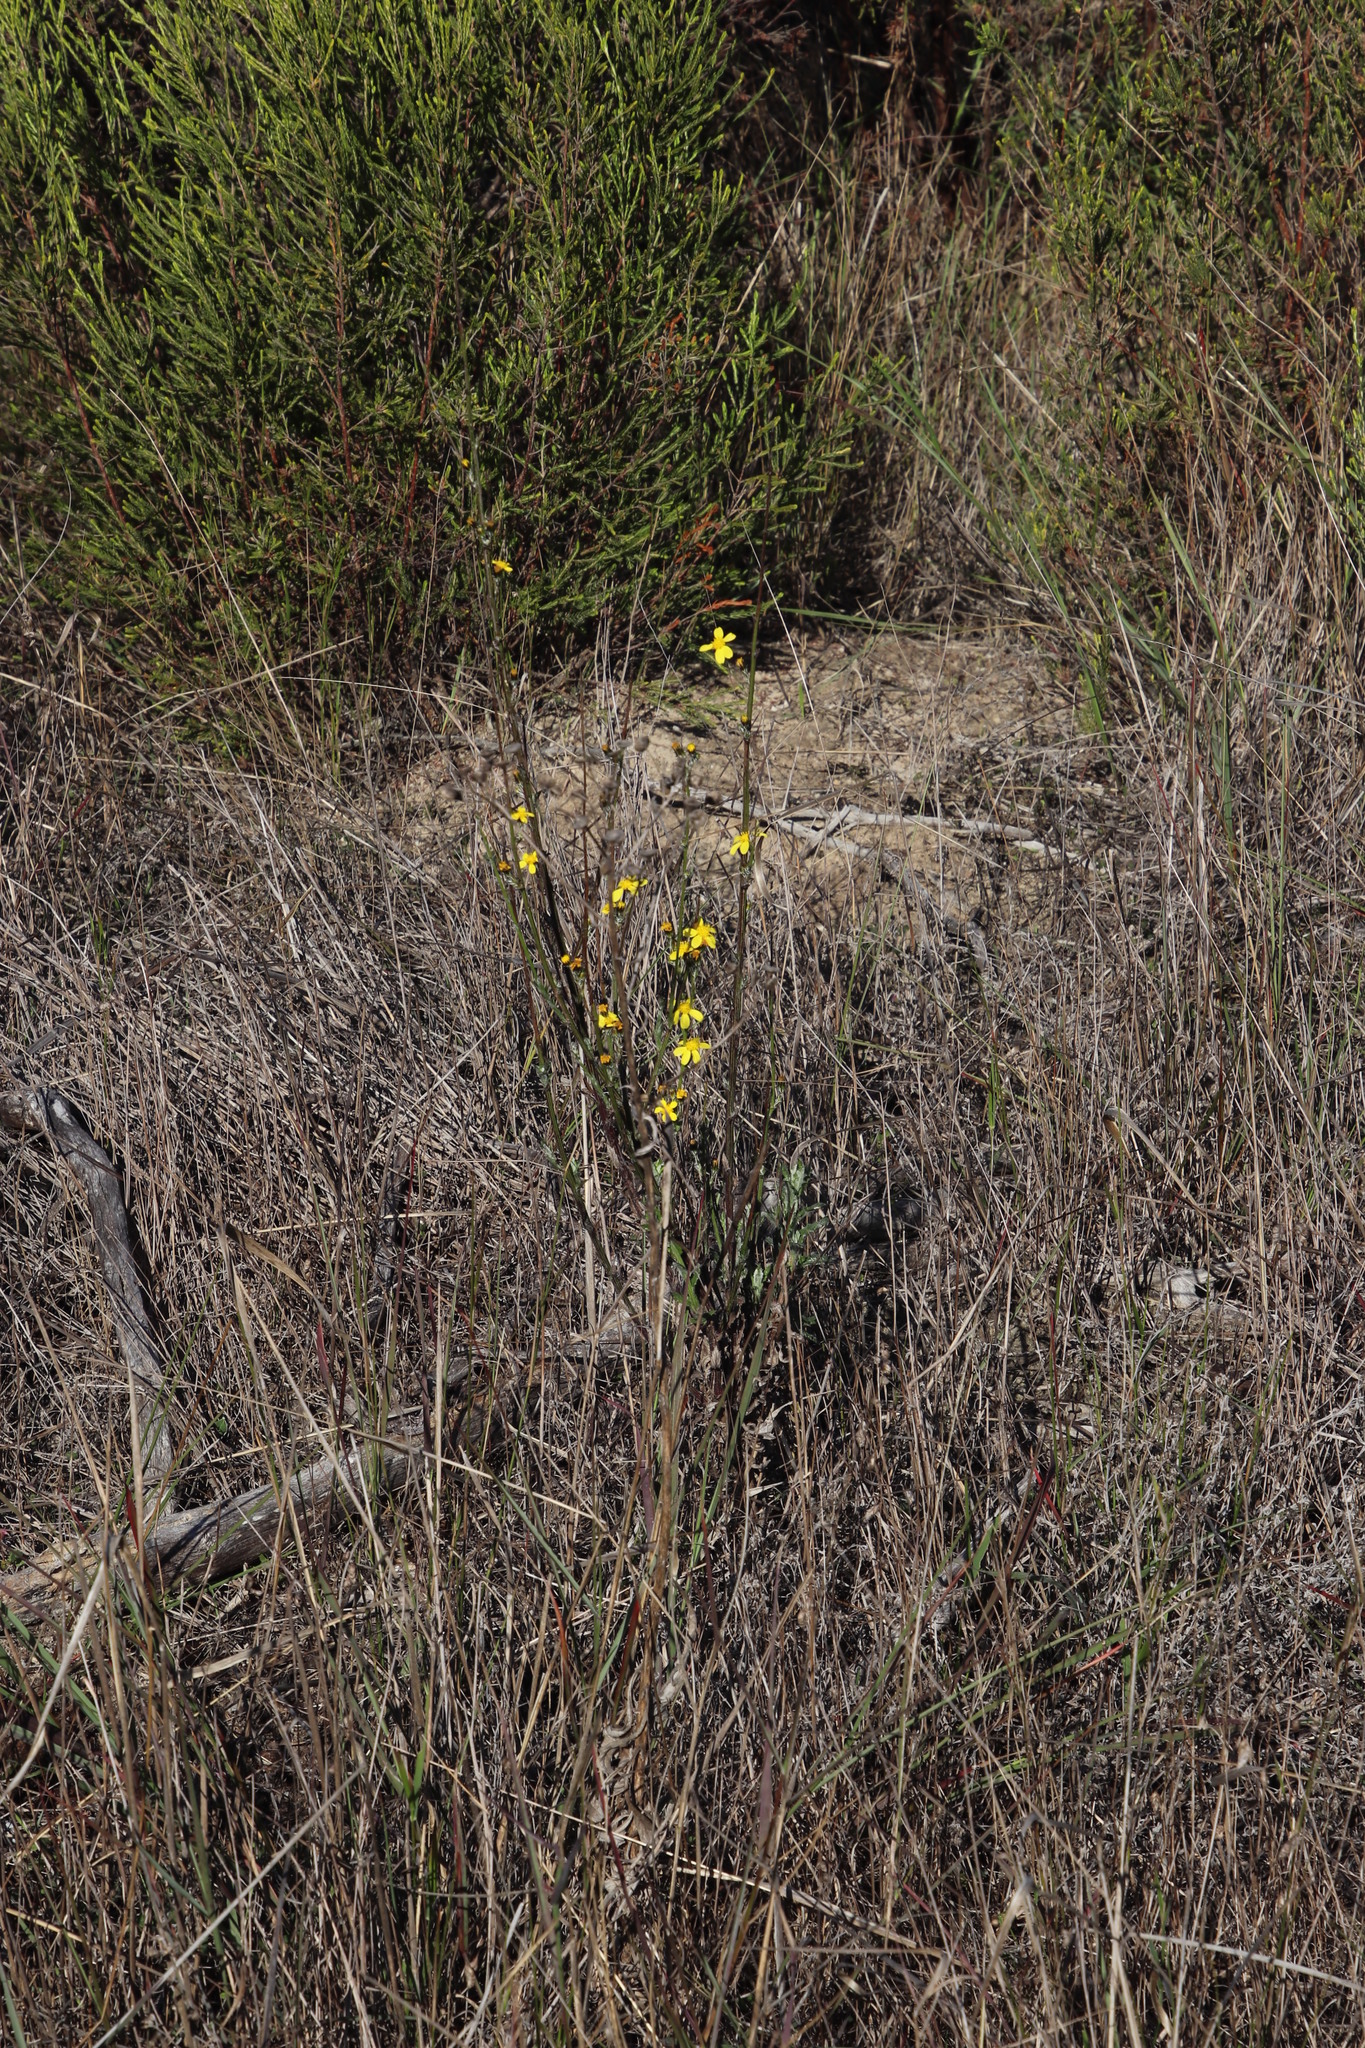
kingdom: Plantae
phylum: Tracheophyta
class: Magnoliopsida
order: Asterales
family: Asteraceae
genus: Senecio
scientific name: Senecio pubigerus
